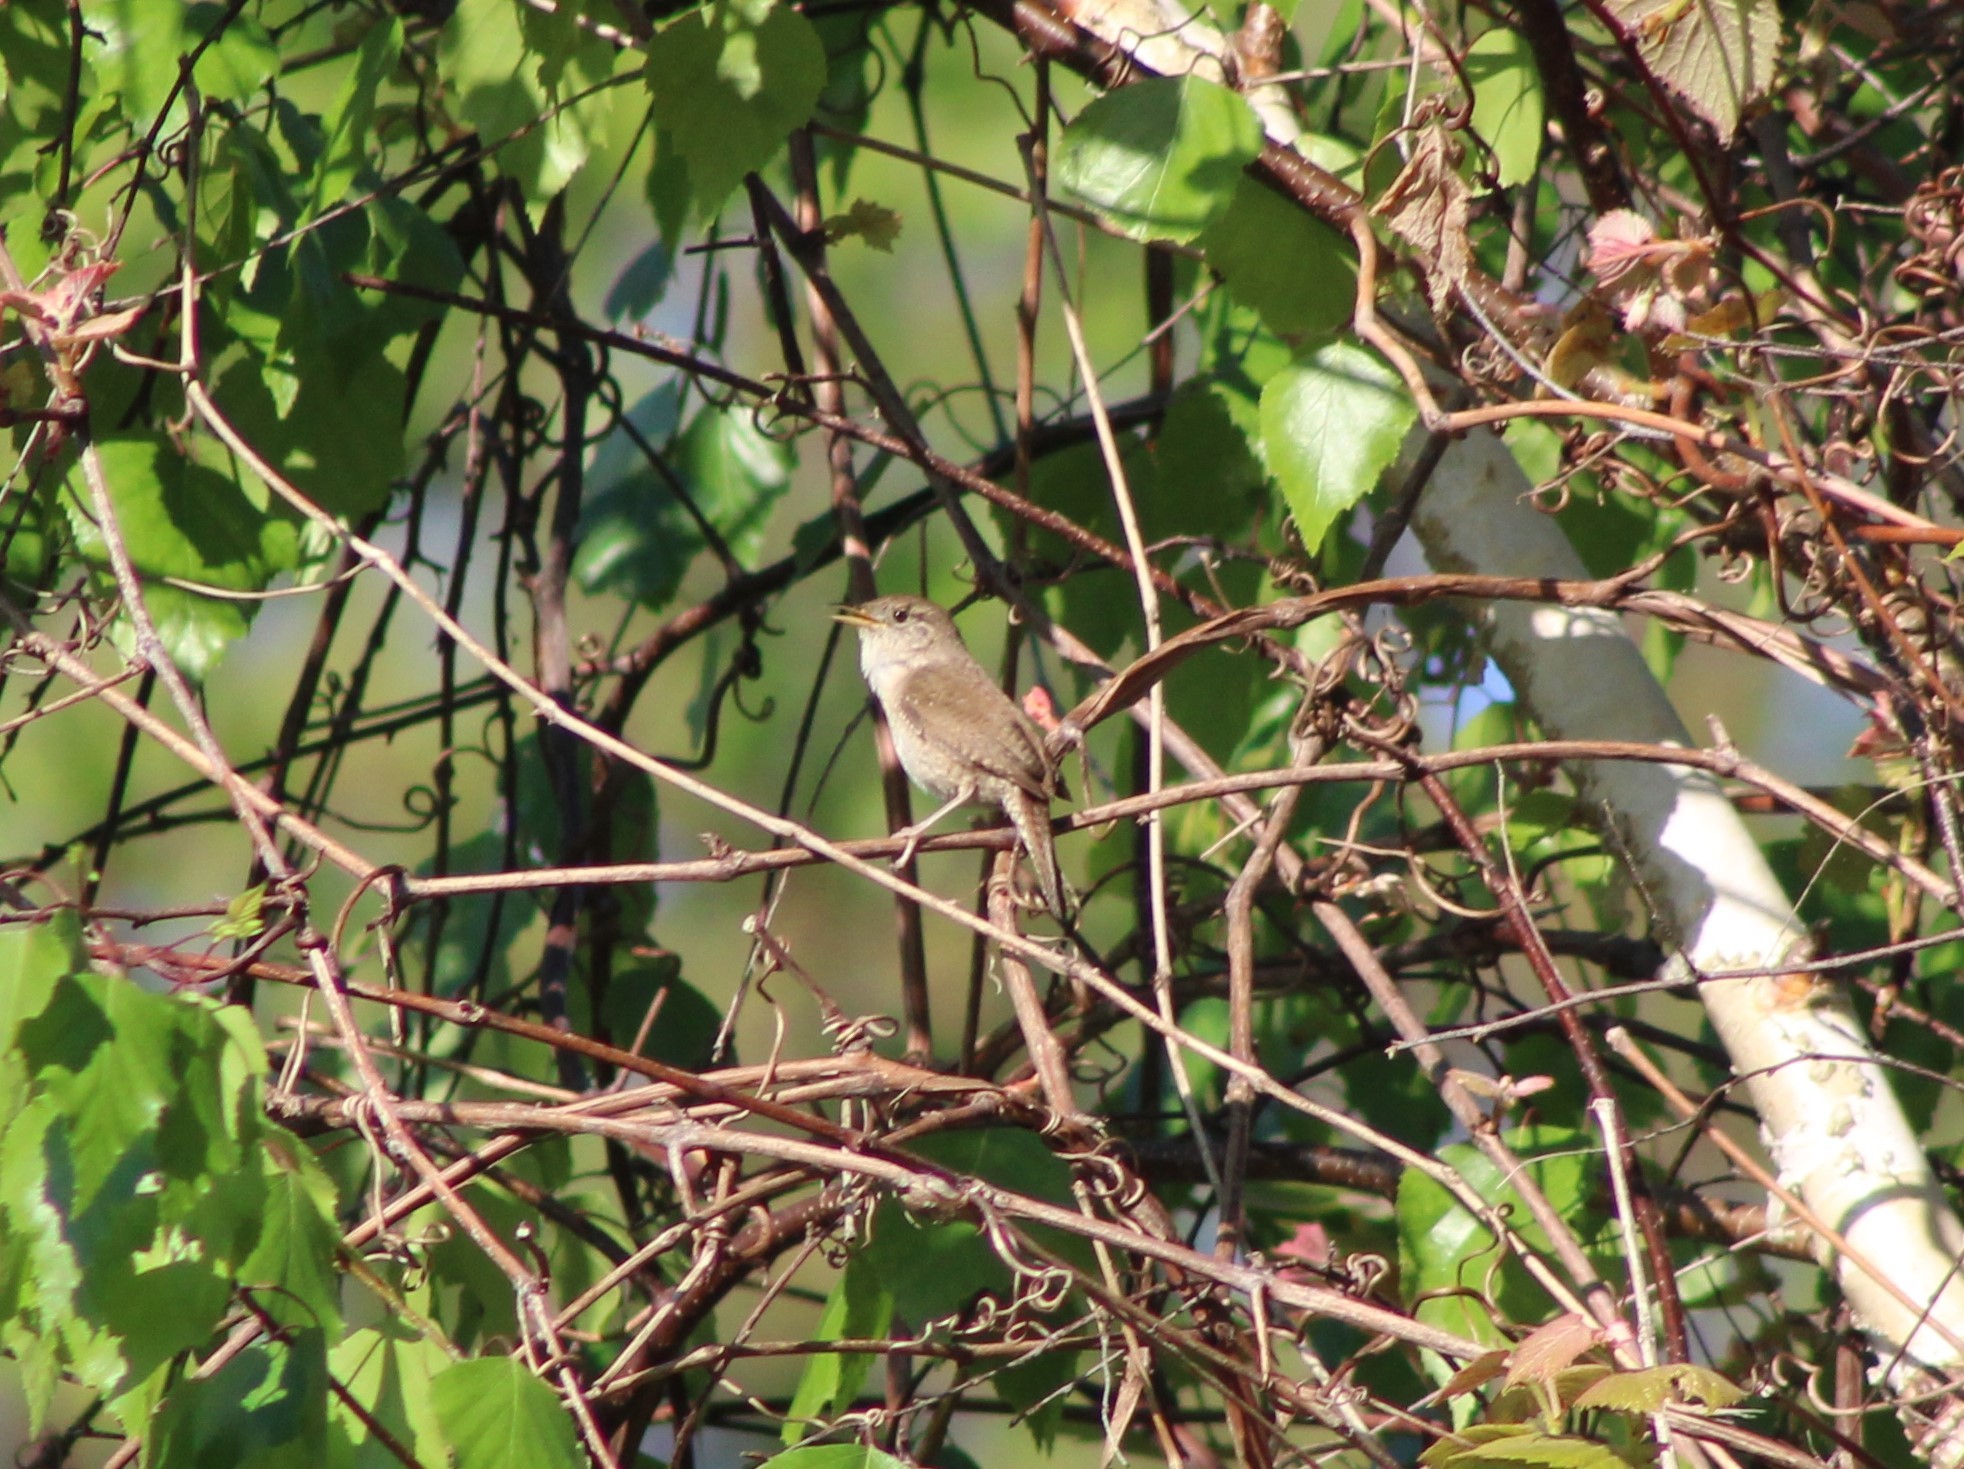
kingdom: Animalia
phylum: Chordata
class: Aves
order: Passeriformes
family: Troglodytidae
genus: Troglodytes
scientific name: Troglodytes aedon
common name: House wren
